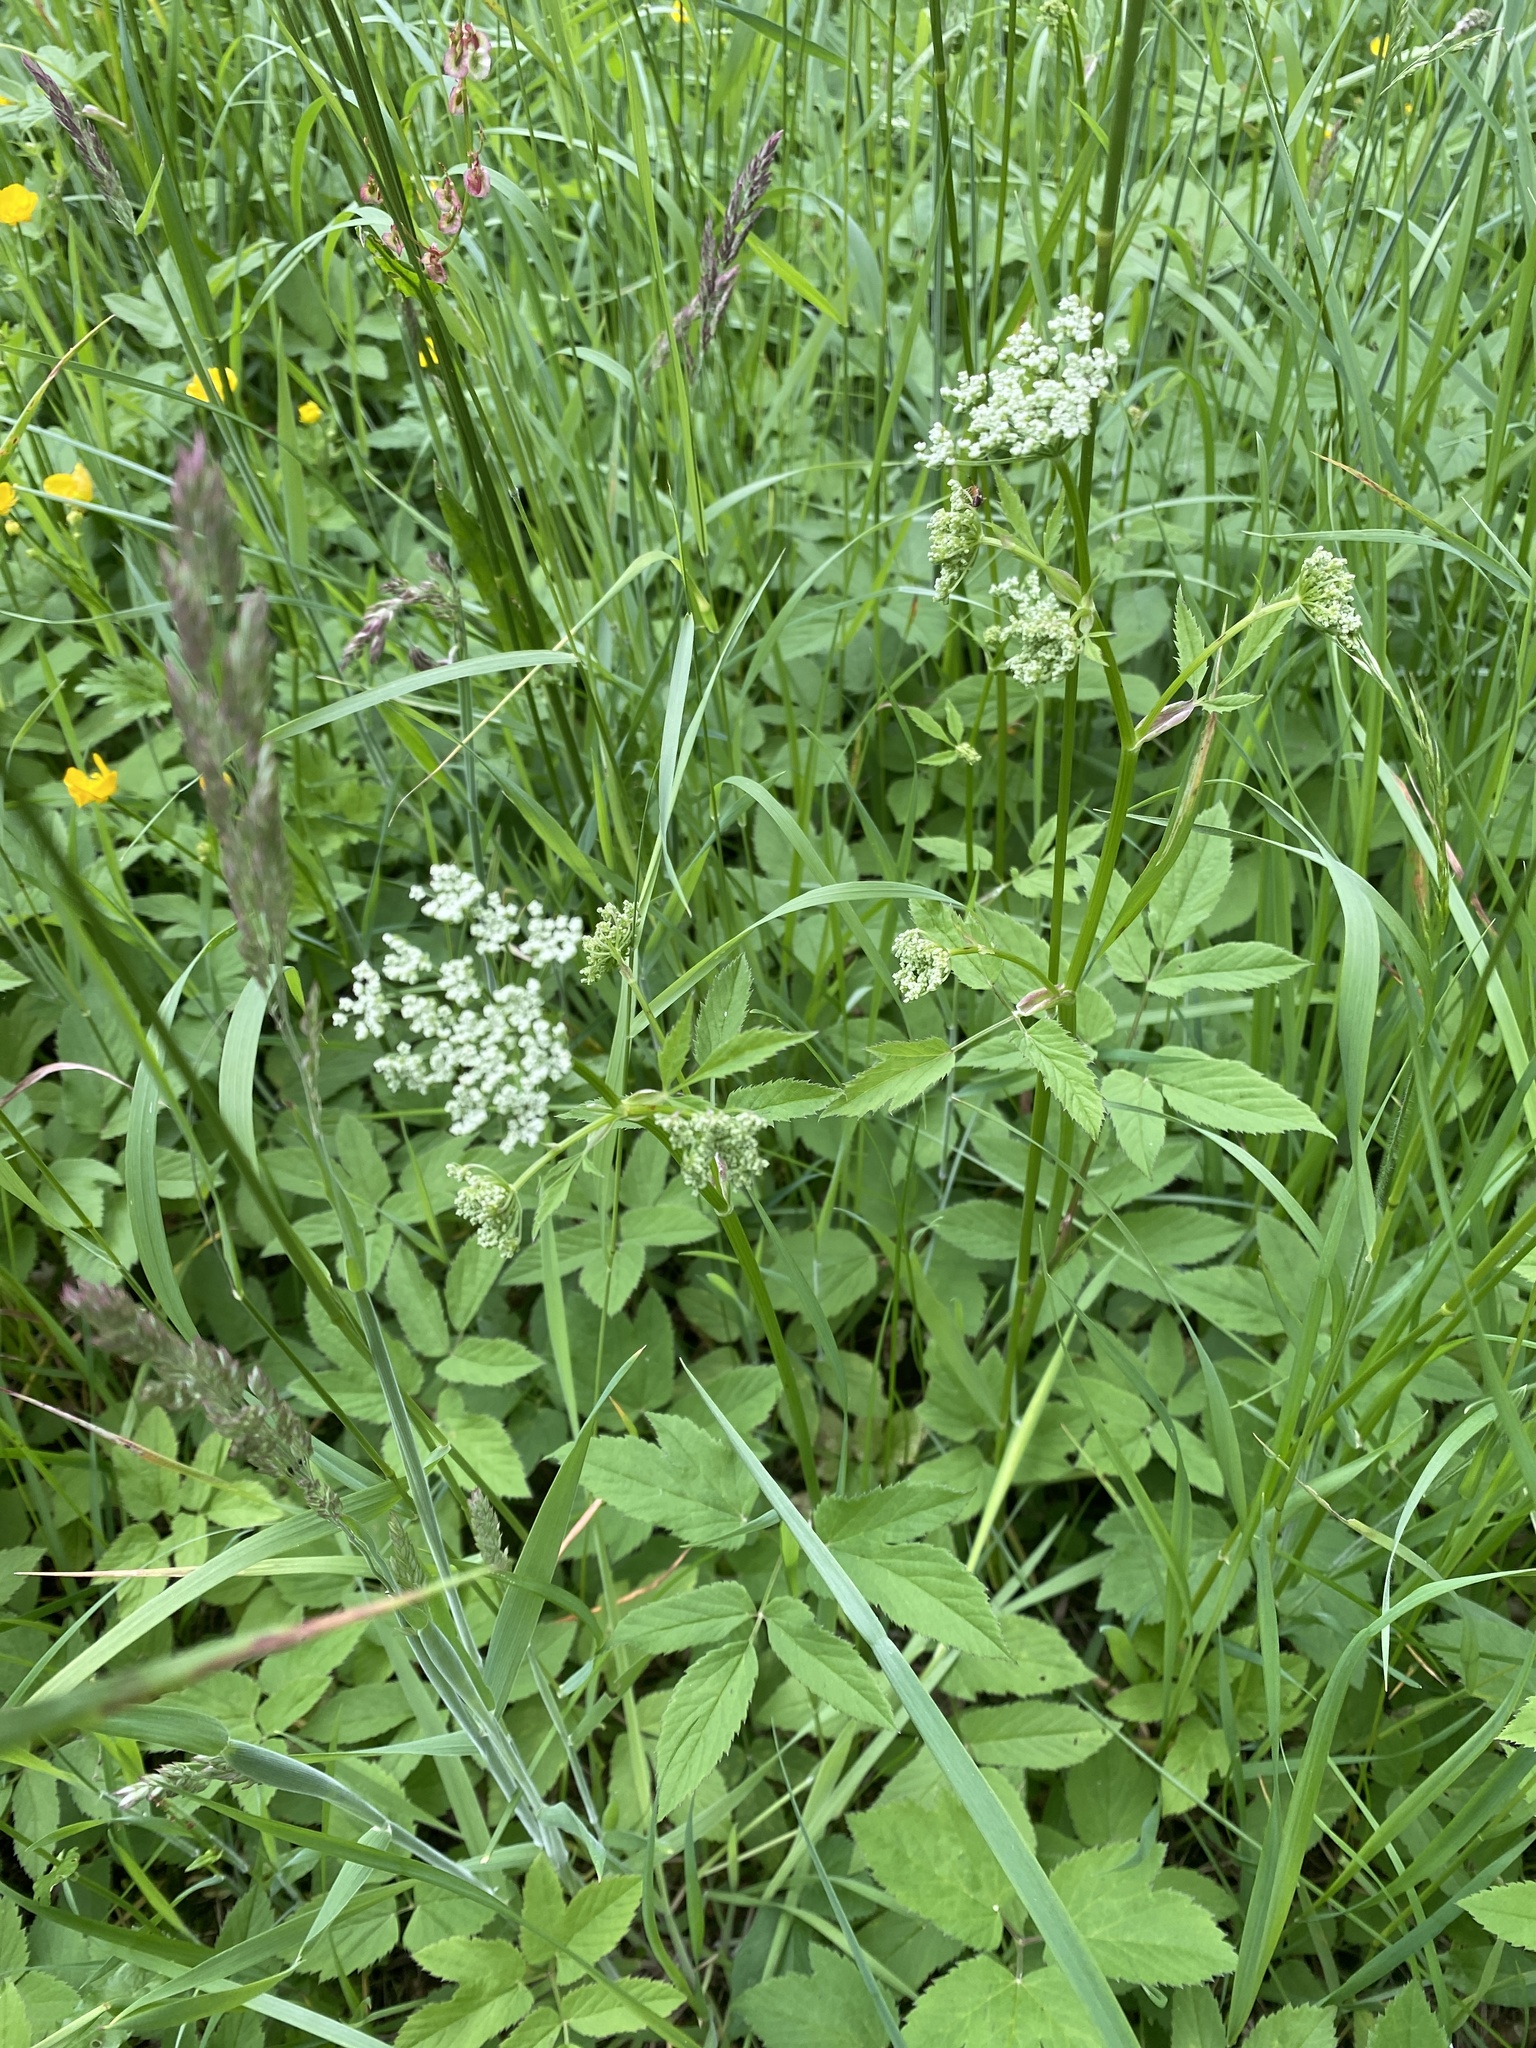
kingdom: Plantae
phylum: Tracheophyta
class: Magnoliopsida
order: Apiales
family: Apiaceae
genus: Aegopodium
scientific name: Aegopodium podagraria
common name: Ground-elder
